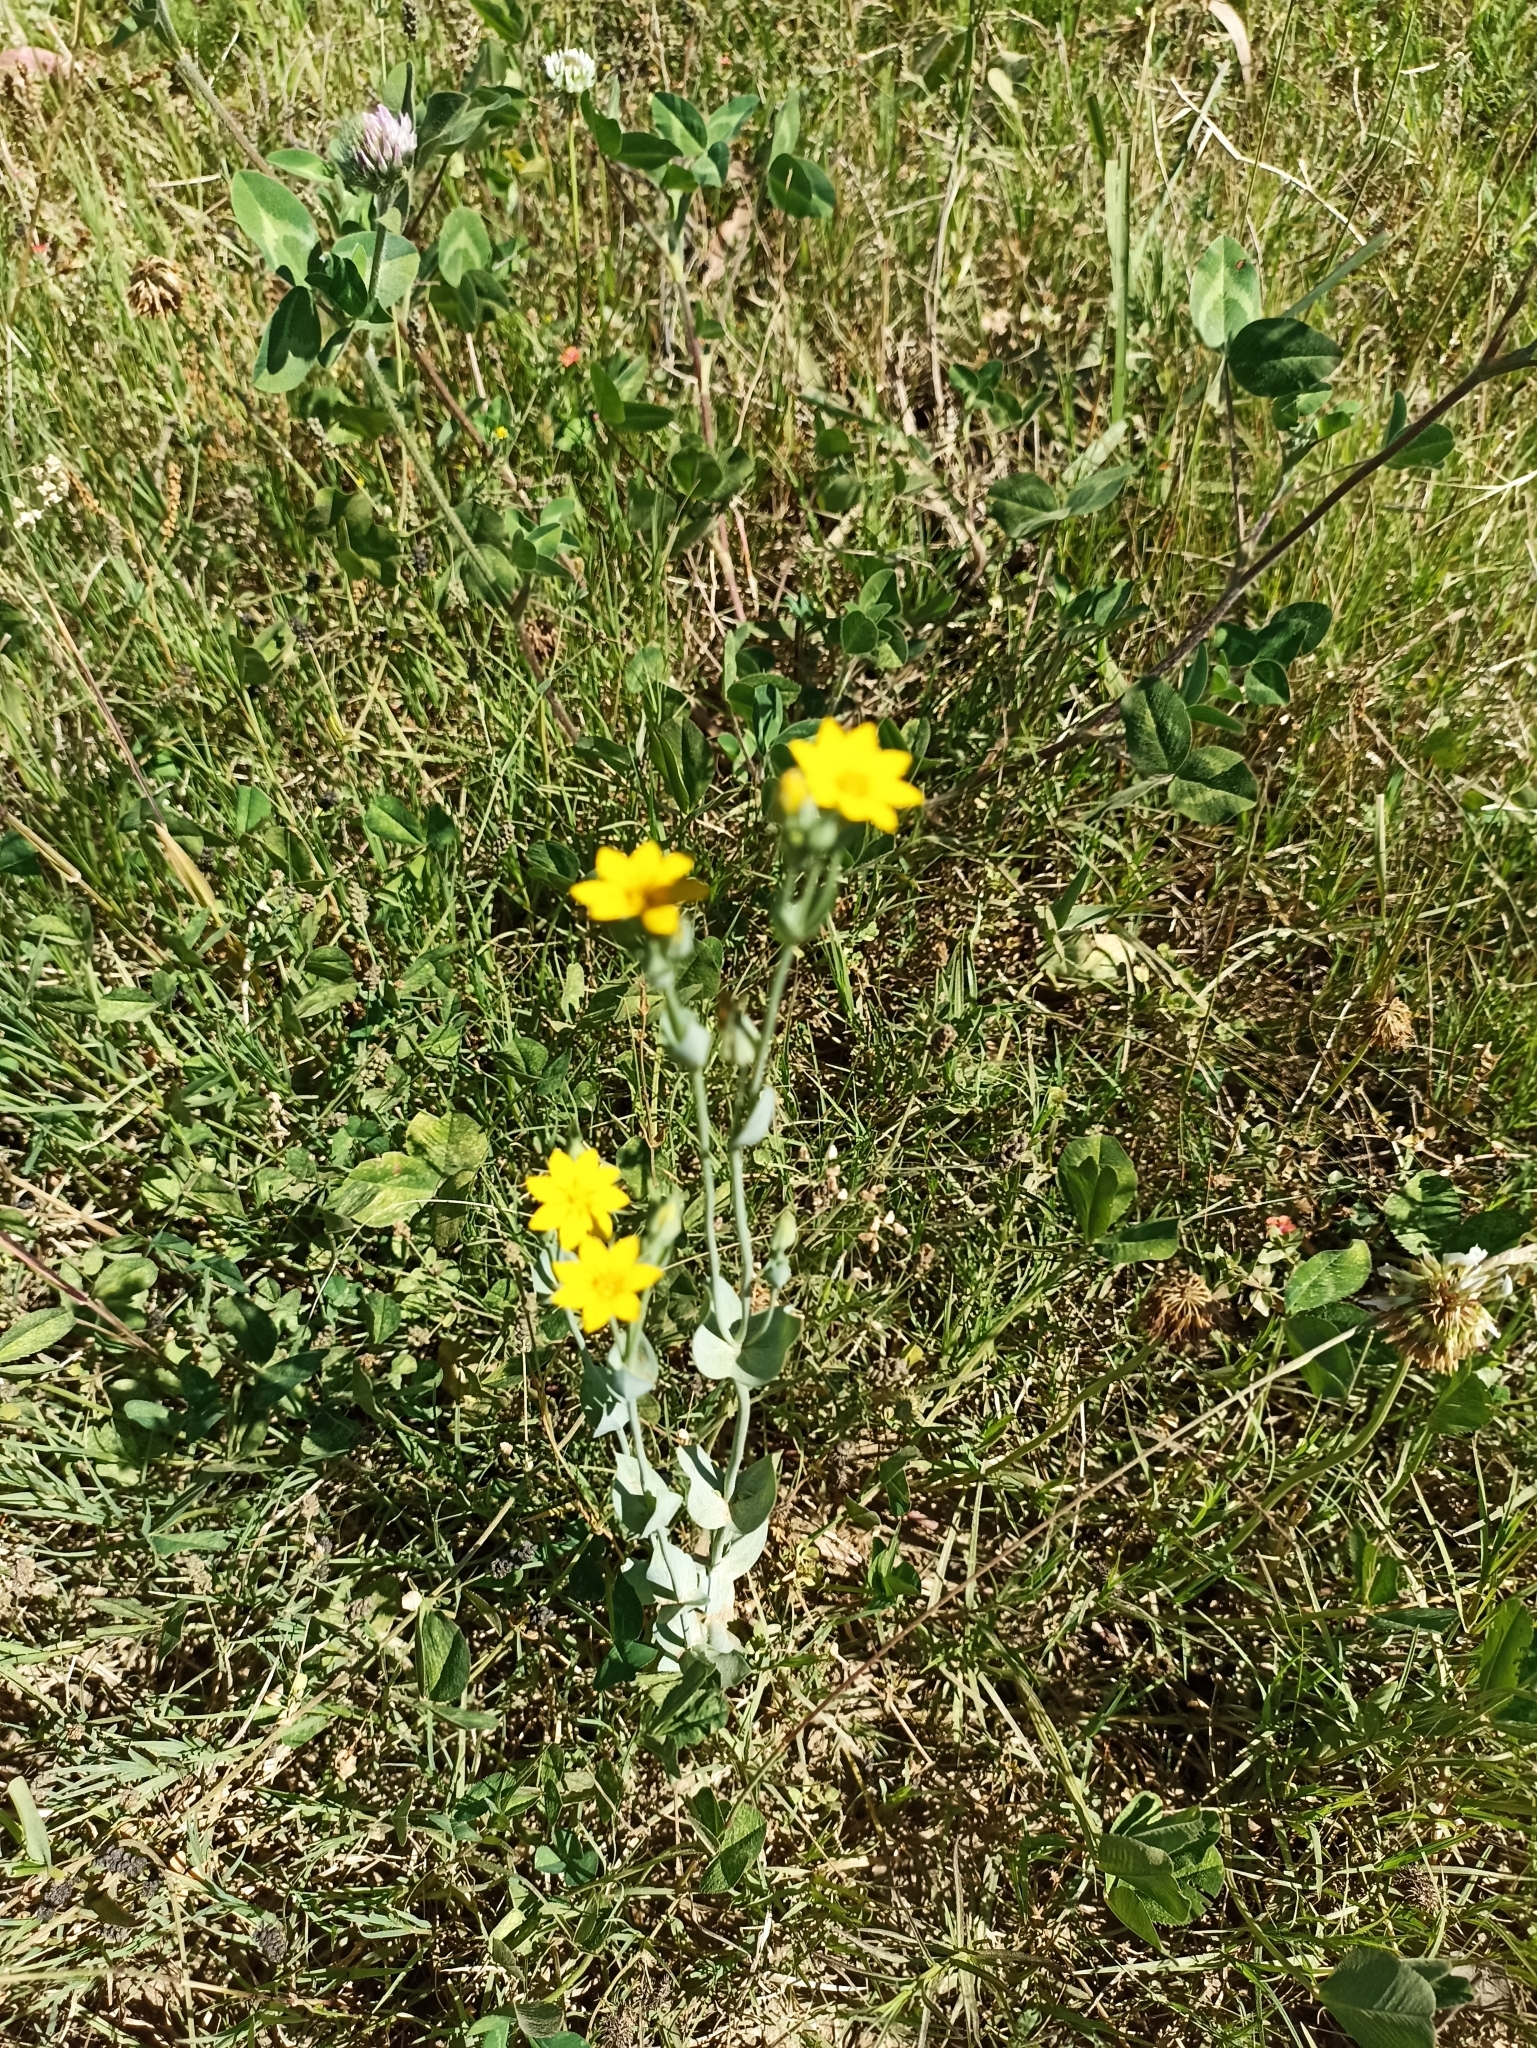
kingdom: Plantae
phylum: Tracheophyta
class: Magnoliopsida
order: Gentianales
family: Gentianaceae
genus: Blackstonia
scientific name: Blackstonia perfoliata
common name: Yellow-wort
